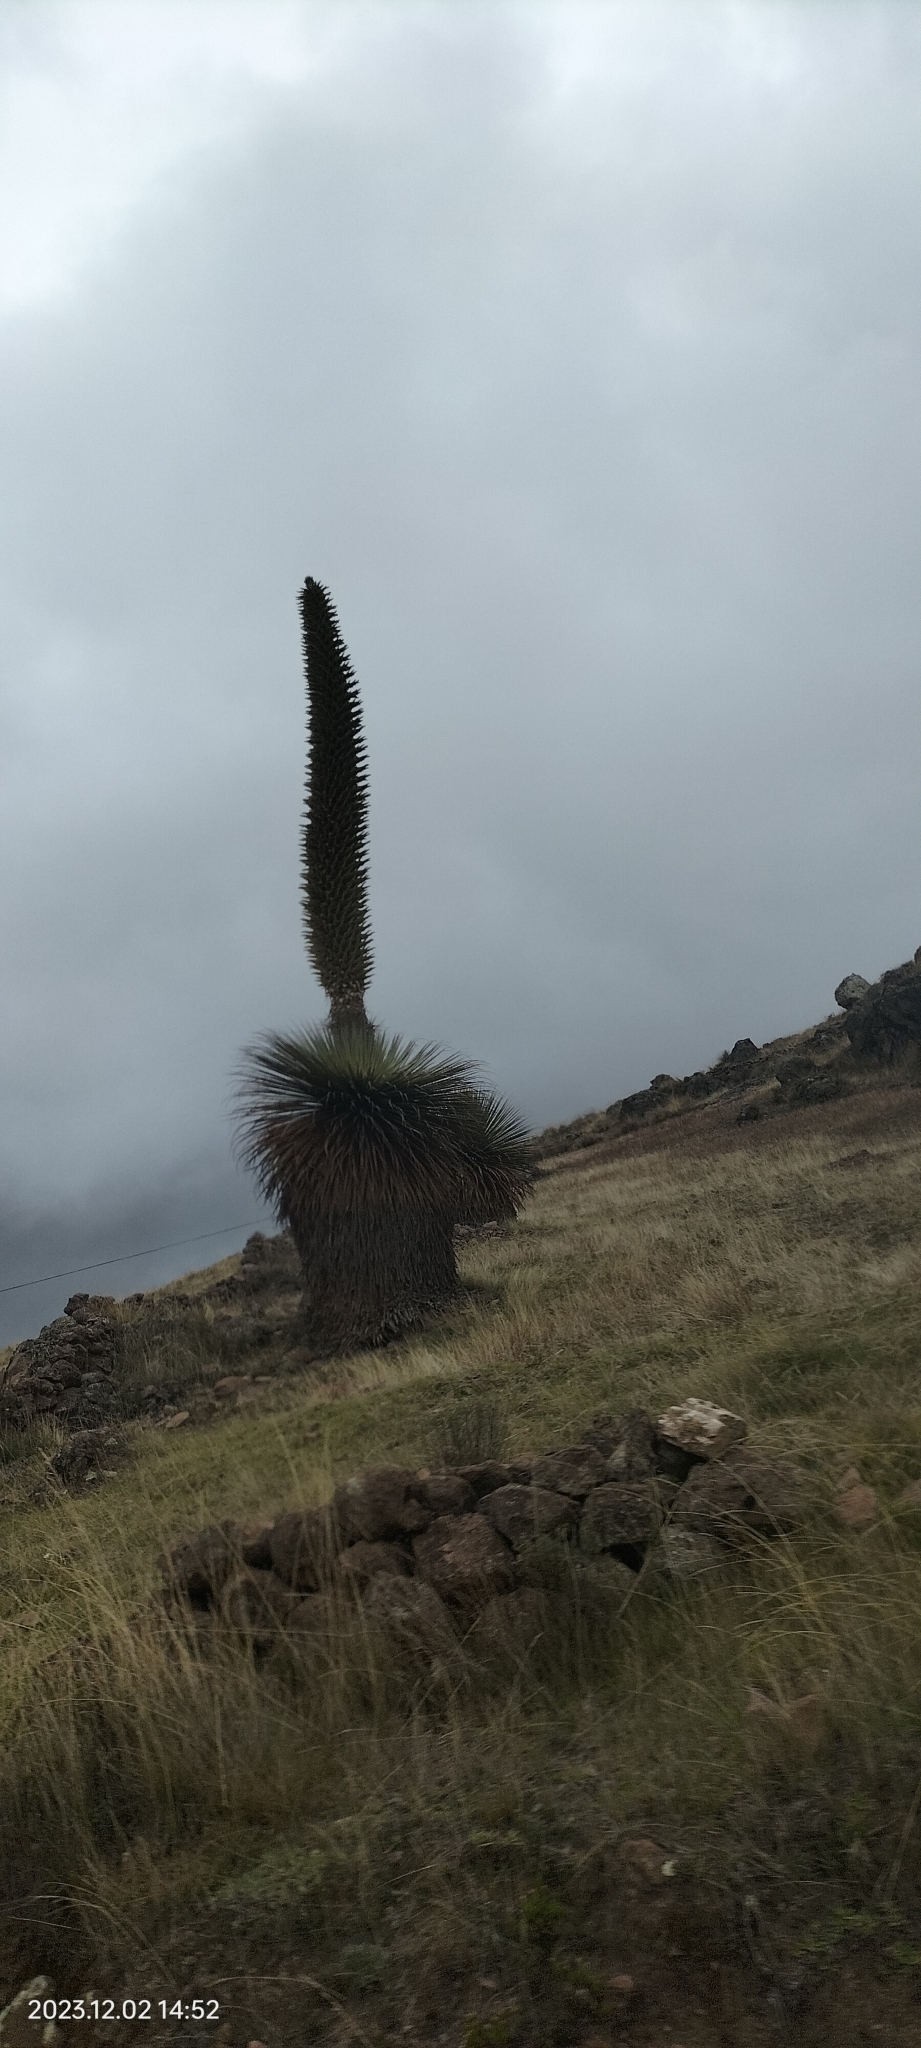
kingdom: Plantae
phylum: Tracheophyta
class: Liliopsida
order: Poales
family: Bromeliaceae
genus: Puya
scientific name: Puya raimondii
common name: Queen of the andes
